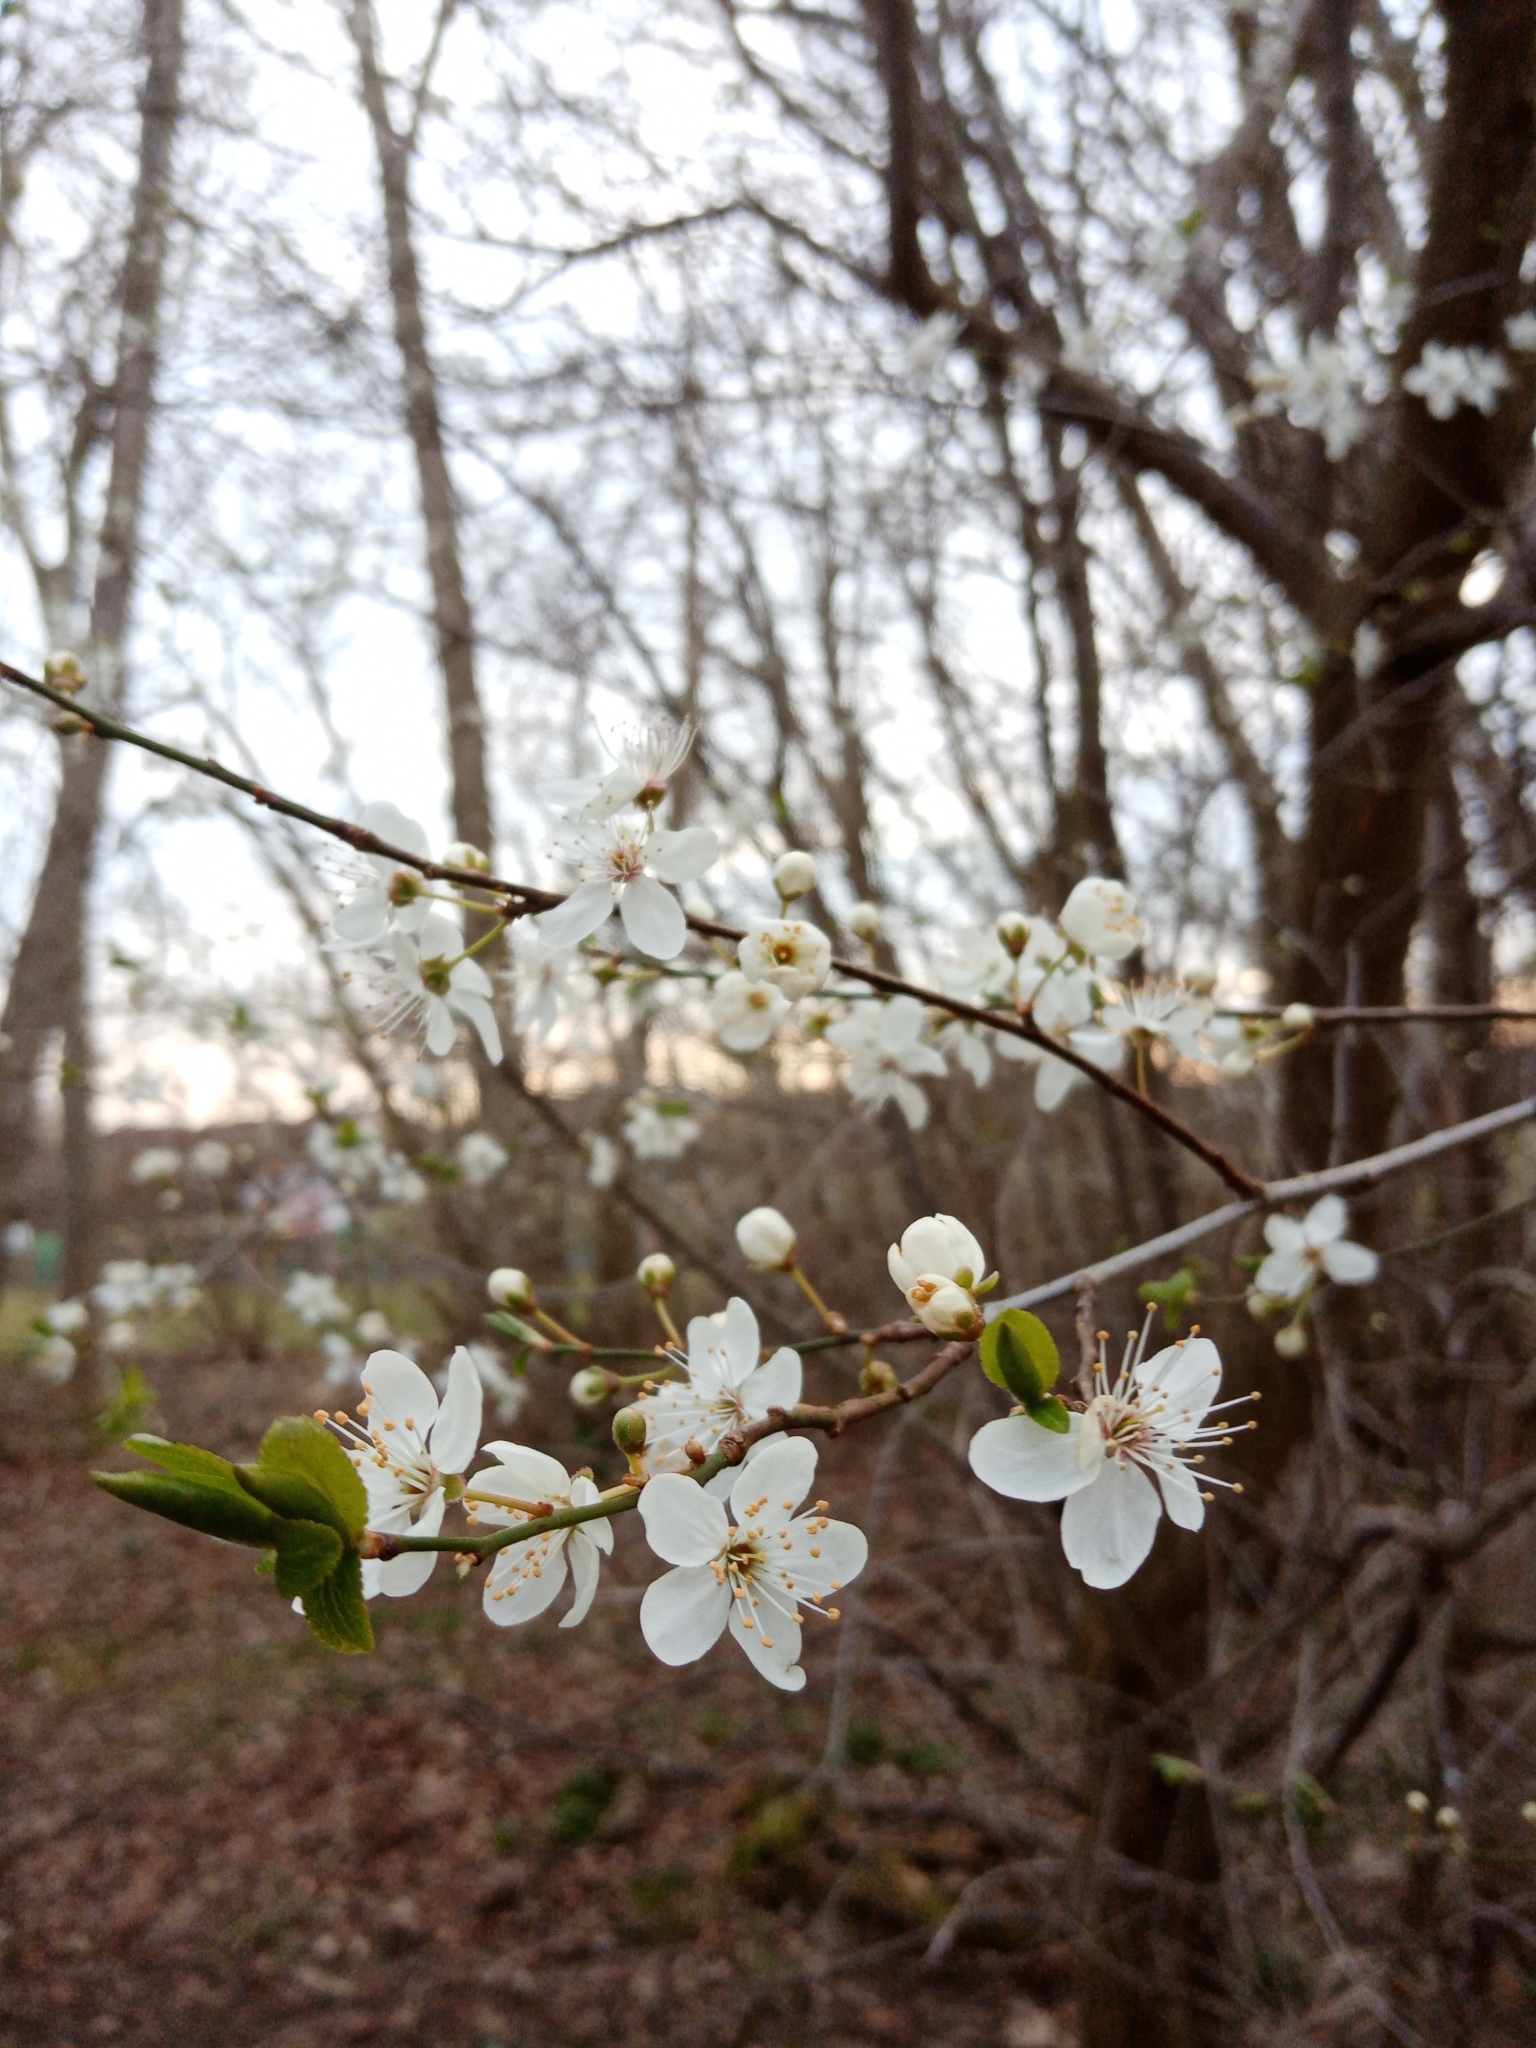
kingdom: Plantae
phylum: Tracheophyta
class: Magnoliopsida
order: Rosales
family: Rosaceae
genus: Prunus
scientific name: Prunus cerasifera
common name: Cherry plum
